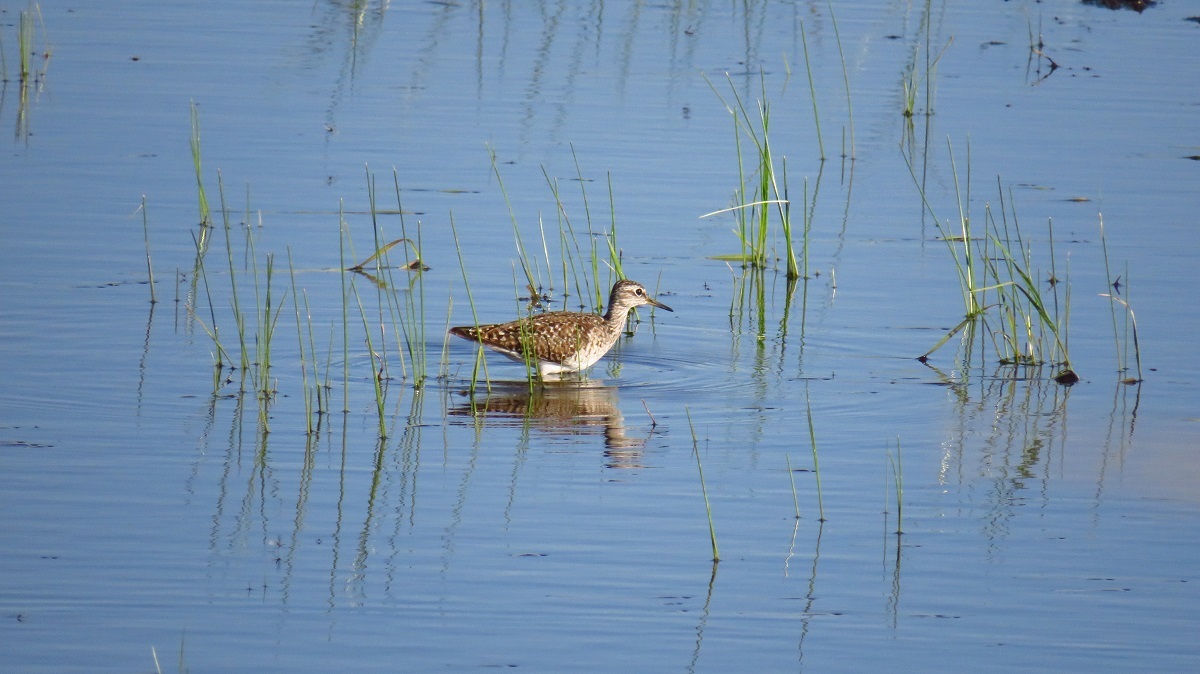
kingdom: Animalia
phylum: Chordata
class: Aves
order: Charadriiformes
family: Scolopacidae
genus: Tringa
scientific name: Tringa glareola
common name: Wood sandpiper
